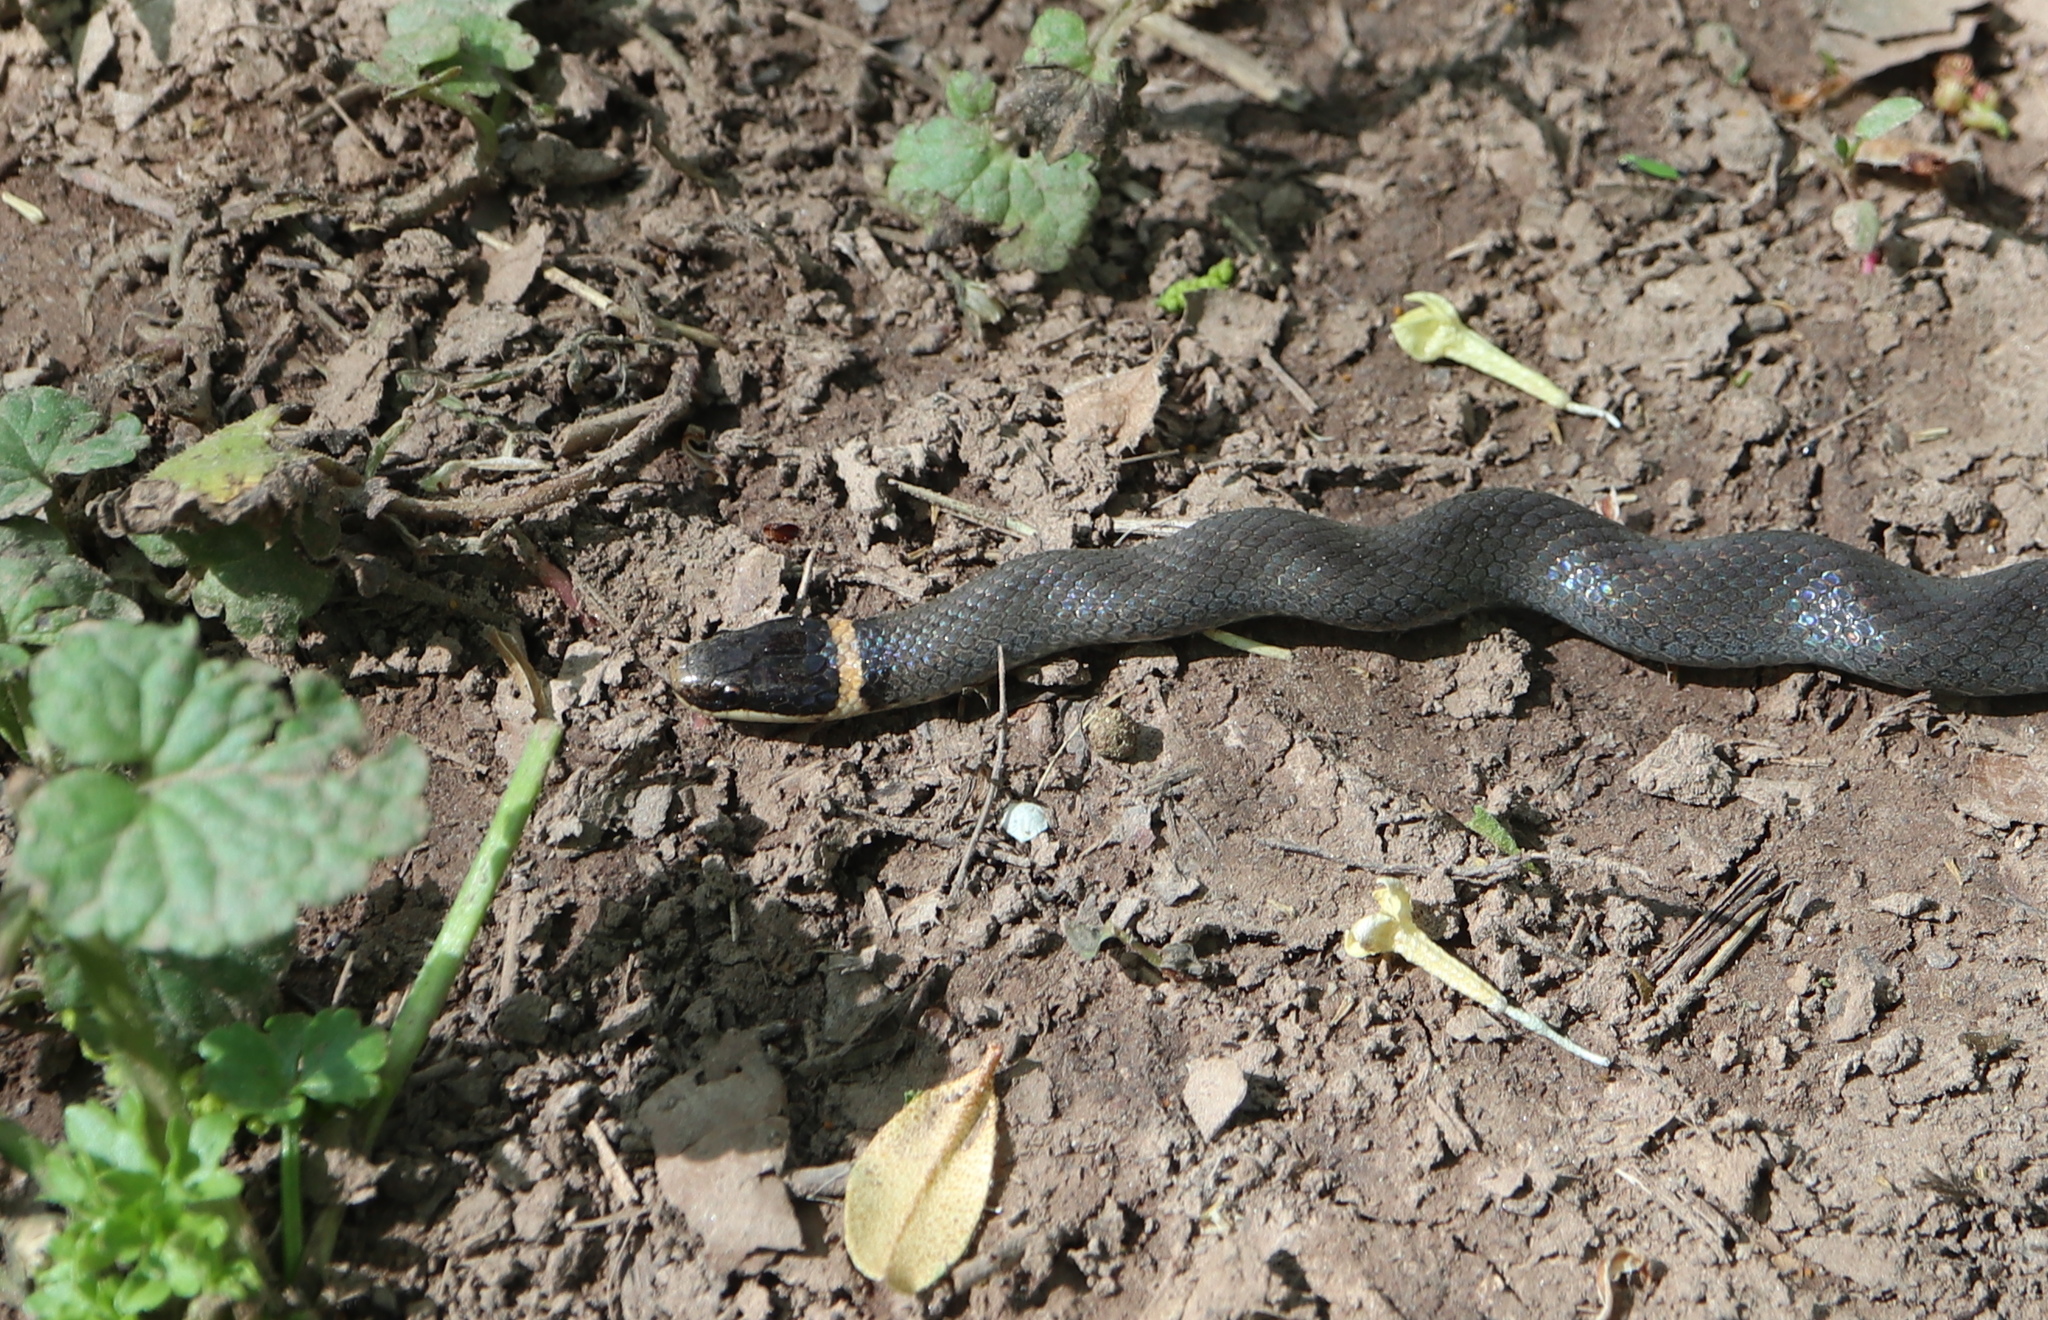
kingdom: Animalia
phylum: Chordata
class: Squamata
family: Colubridae
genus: Diadophis
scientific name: Diadophis punctatus
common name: Ringneck snake
